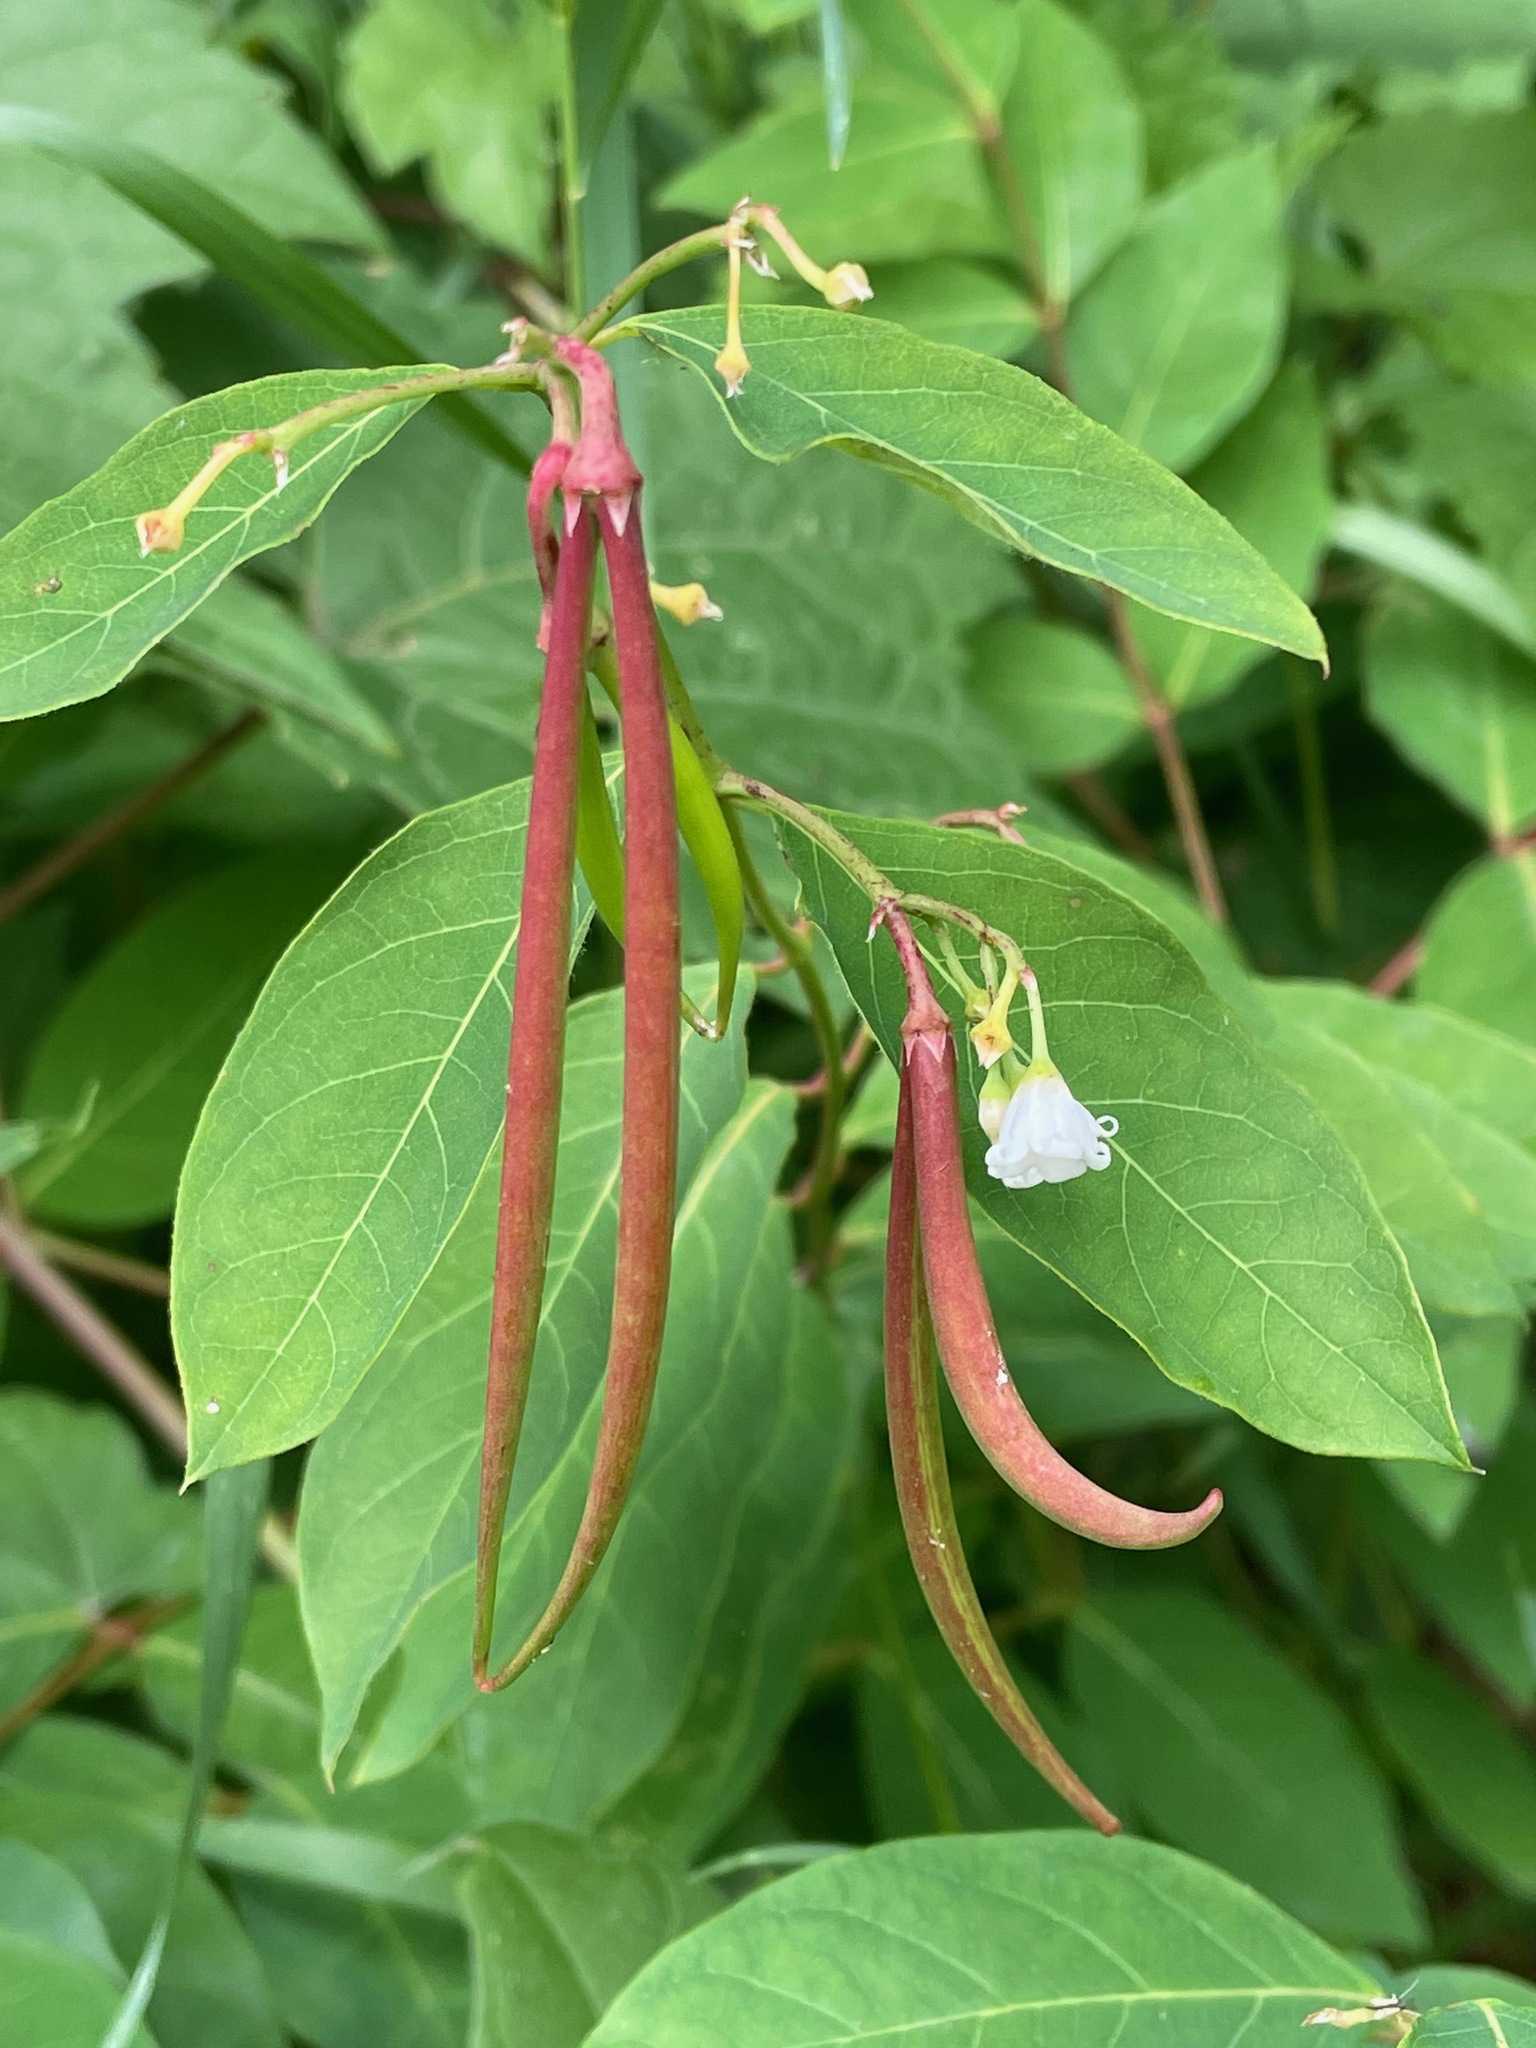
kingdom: Plantae
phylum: Tracheophyta
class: Magnoliopsida
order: Gentianales
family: Apocynaceae
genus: Apocynum
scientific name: Apocynum androsaemifolium
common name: Spreading dogbane
